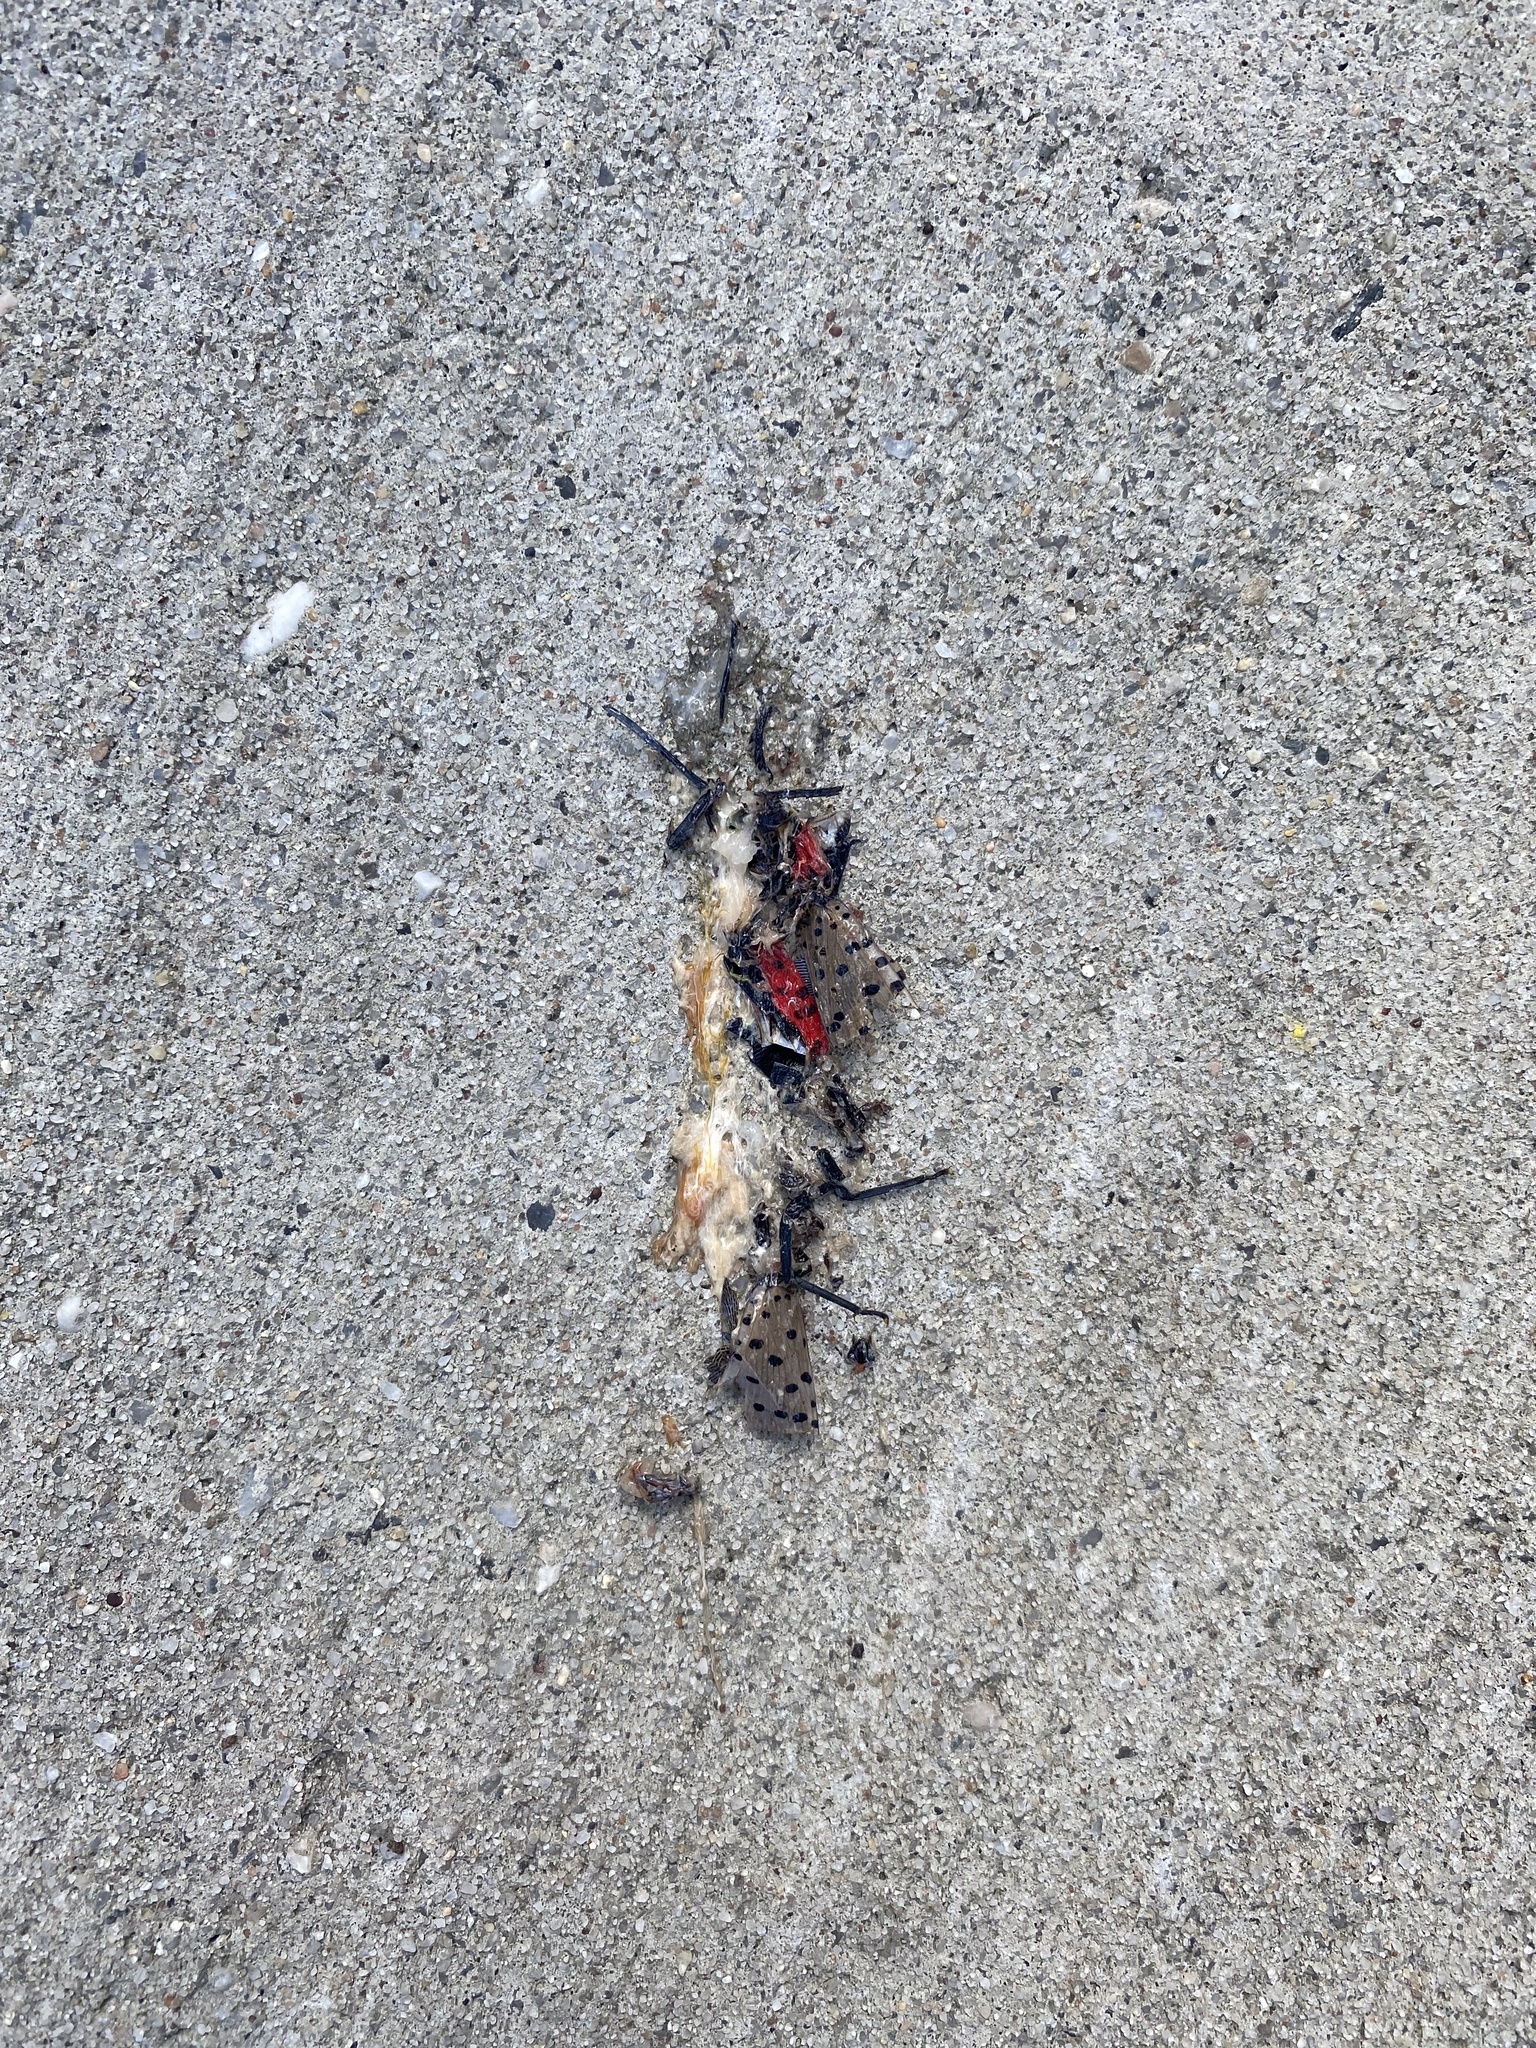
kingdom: Animalia
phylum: Arthropoda
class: Insecta
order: Hemiptera
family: Fulgoridae
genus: Lycorma
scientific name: Lycorma delicatula
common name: Spotted lanternfly
